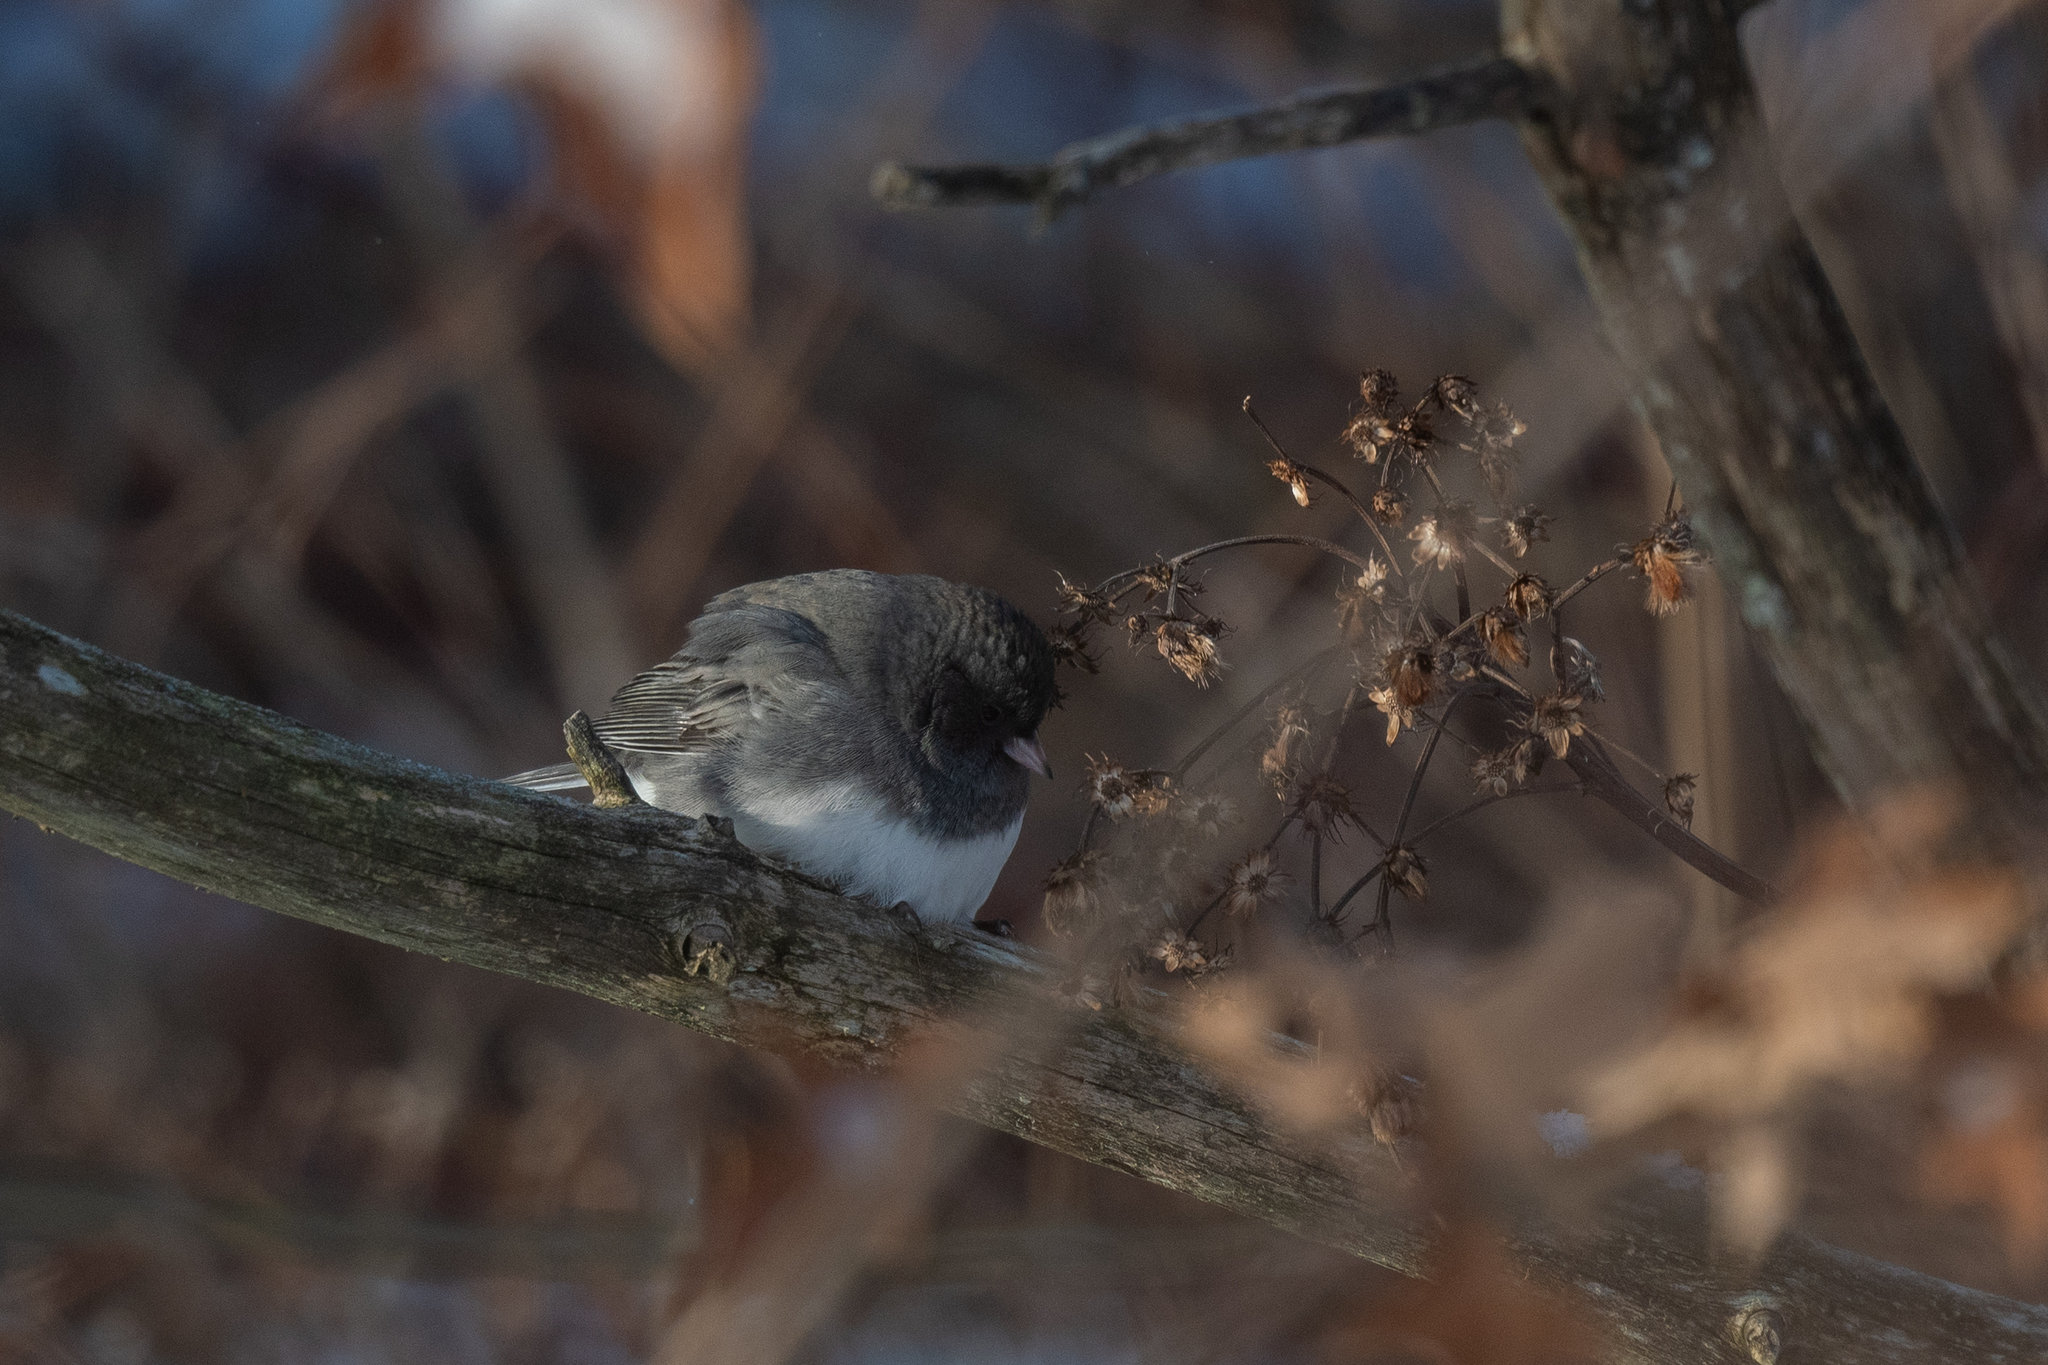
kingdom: Animalia
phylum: Chordata
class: Aves
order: Passeriformes
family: Passerellidae
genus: Junco
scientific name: Junco hyemalis
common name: Dark-eyed junco
